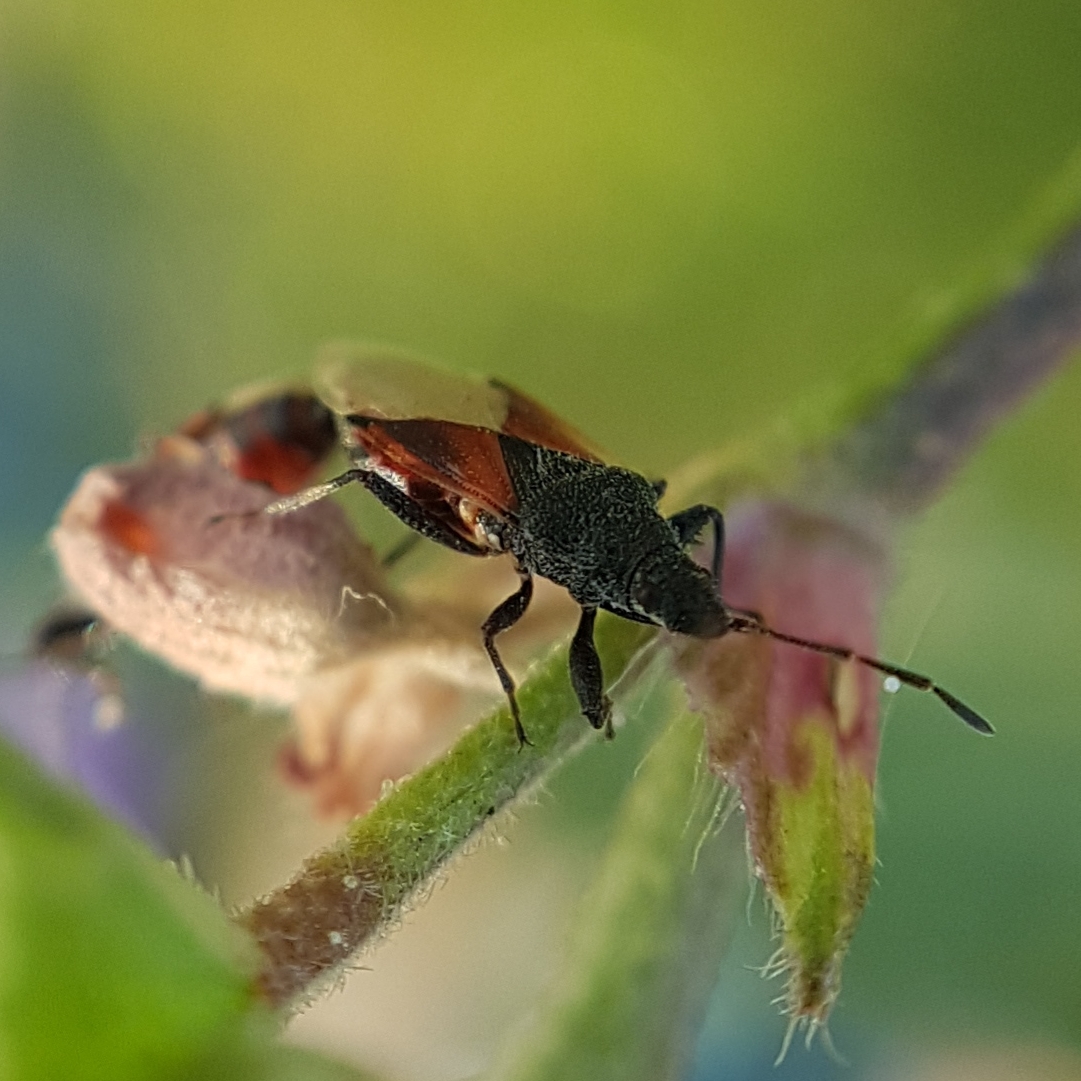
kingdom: Animalia
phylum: Arthropoda
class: Insecta
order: Hemiptera
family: Oxycarenidae
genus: Oxycarenus
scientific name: Oxycarenus lavaterae
